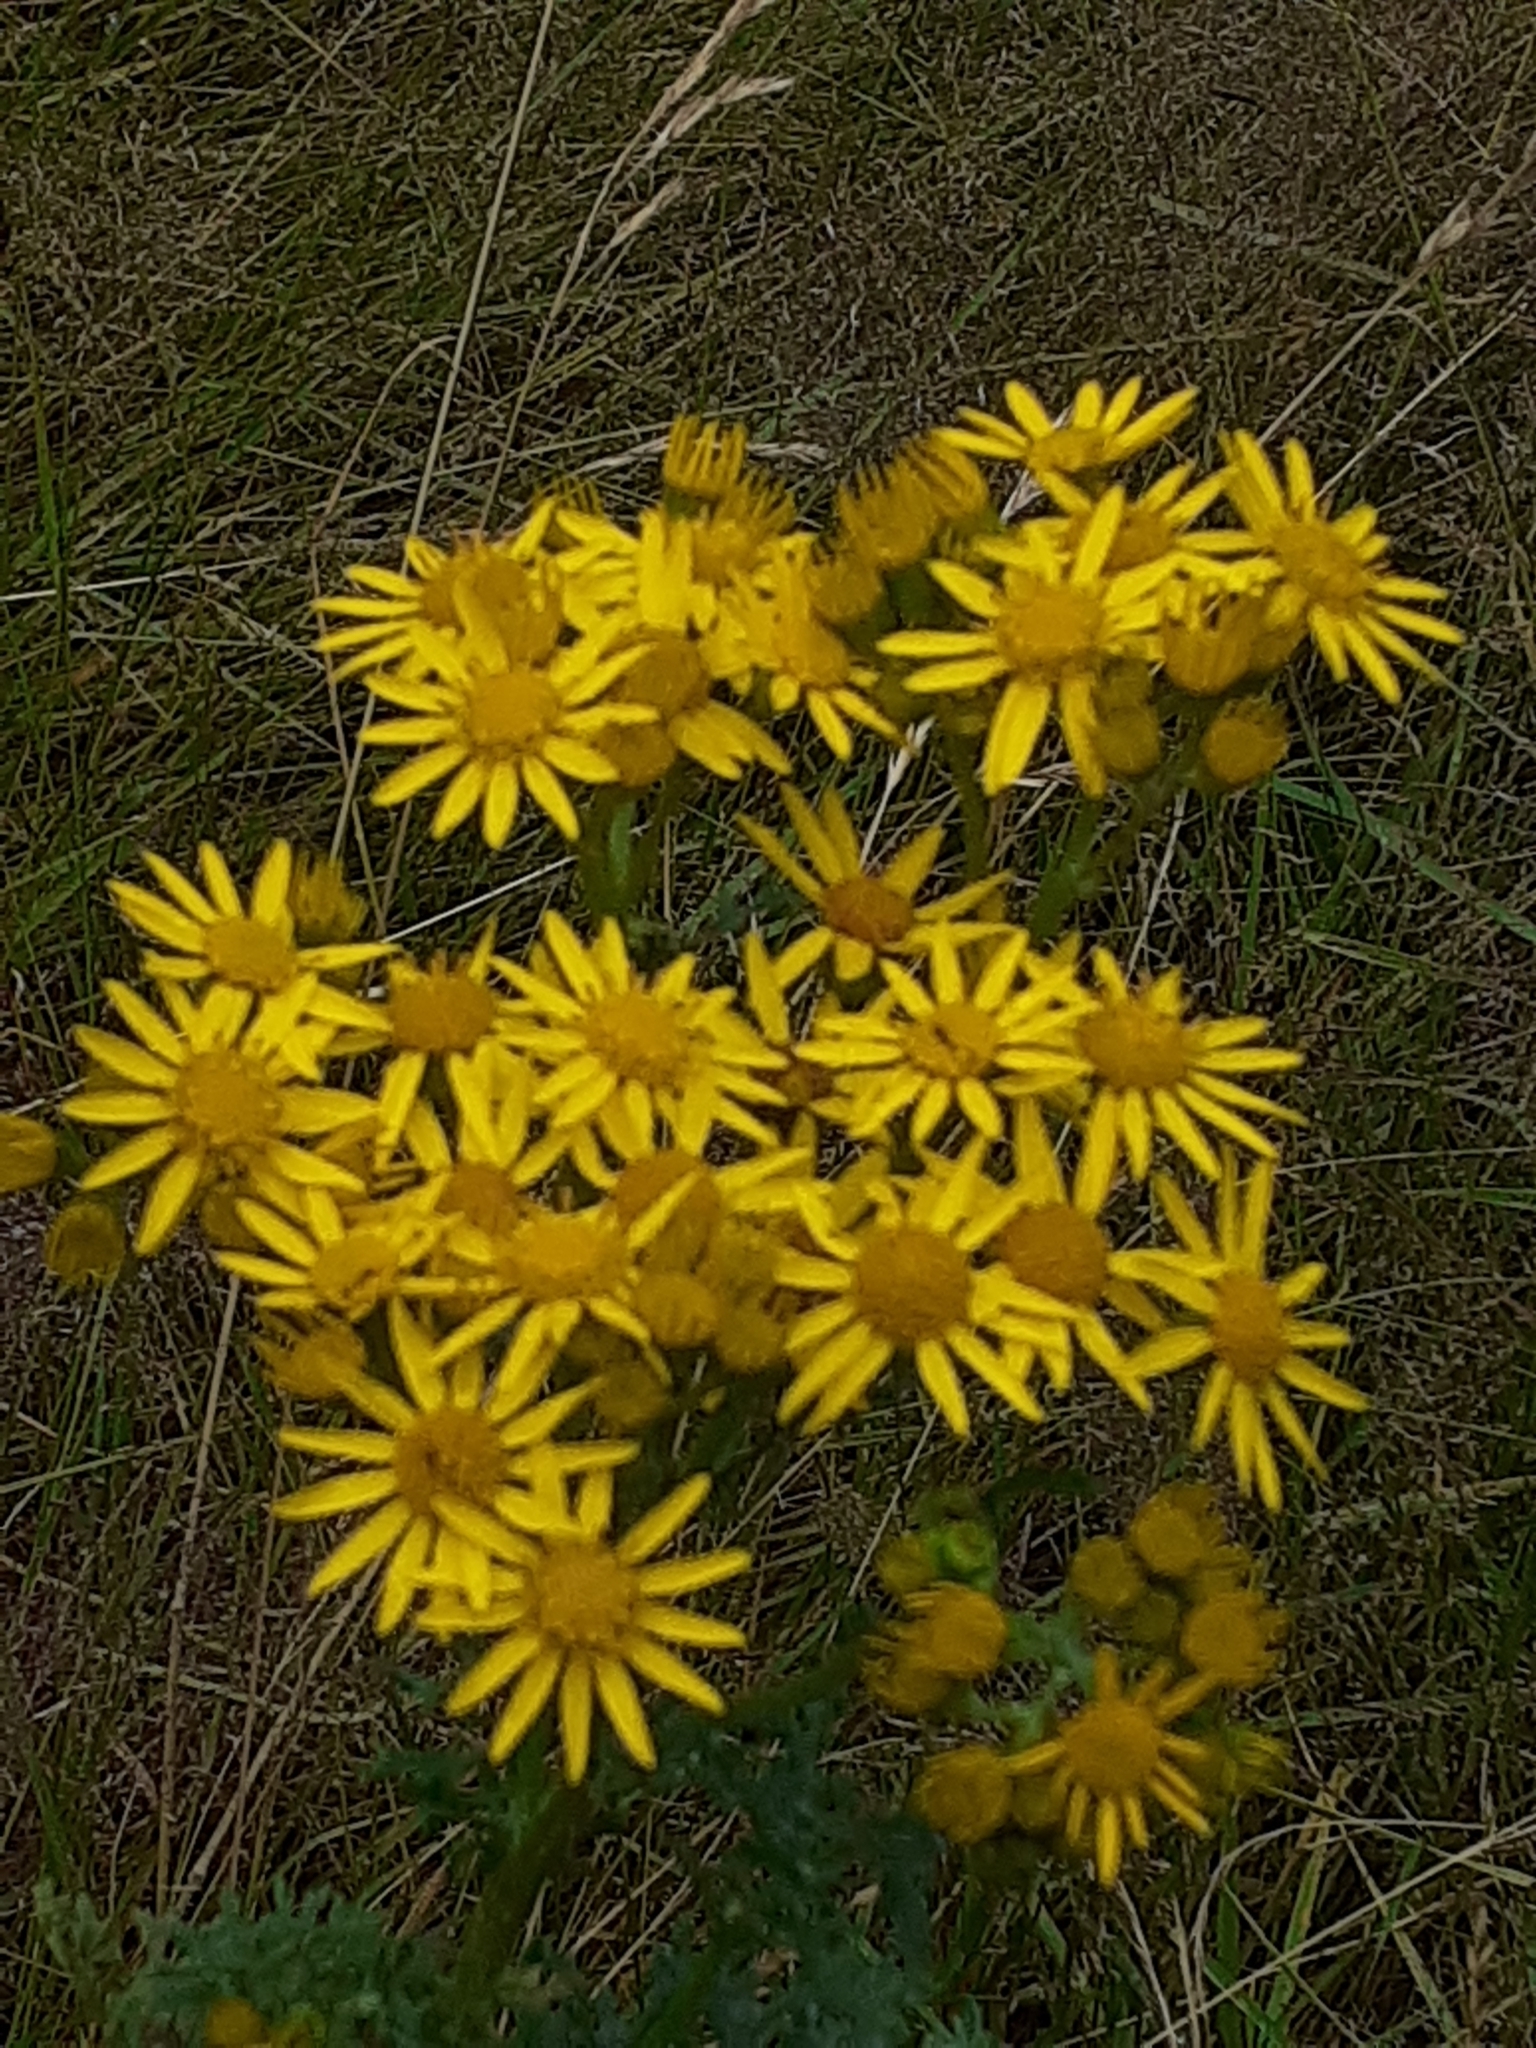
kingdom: Plantae
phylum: Tracheophyta
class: Magnoliopsida
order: Asterales
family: Asteraceae
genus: Jacobaea
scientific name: Jacobaea vulgaris
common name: Stinking willie
